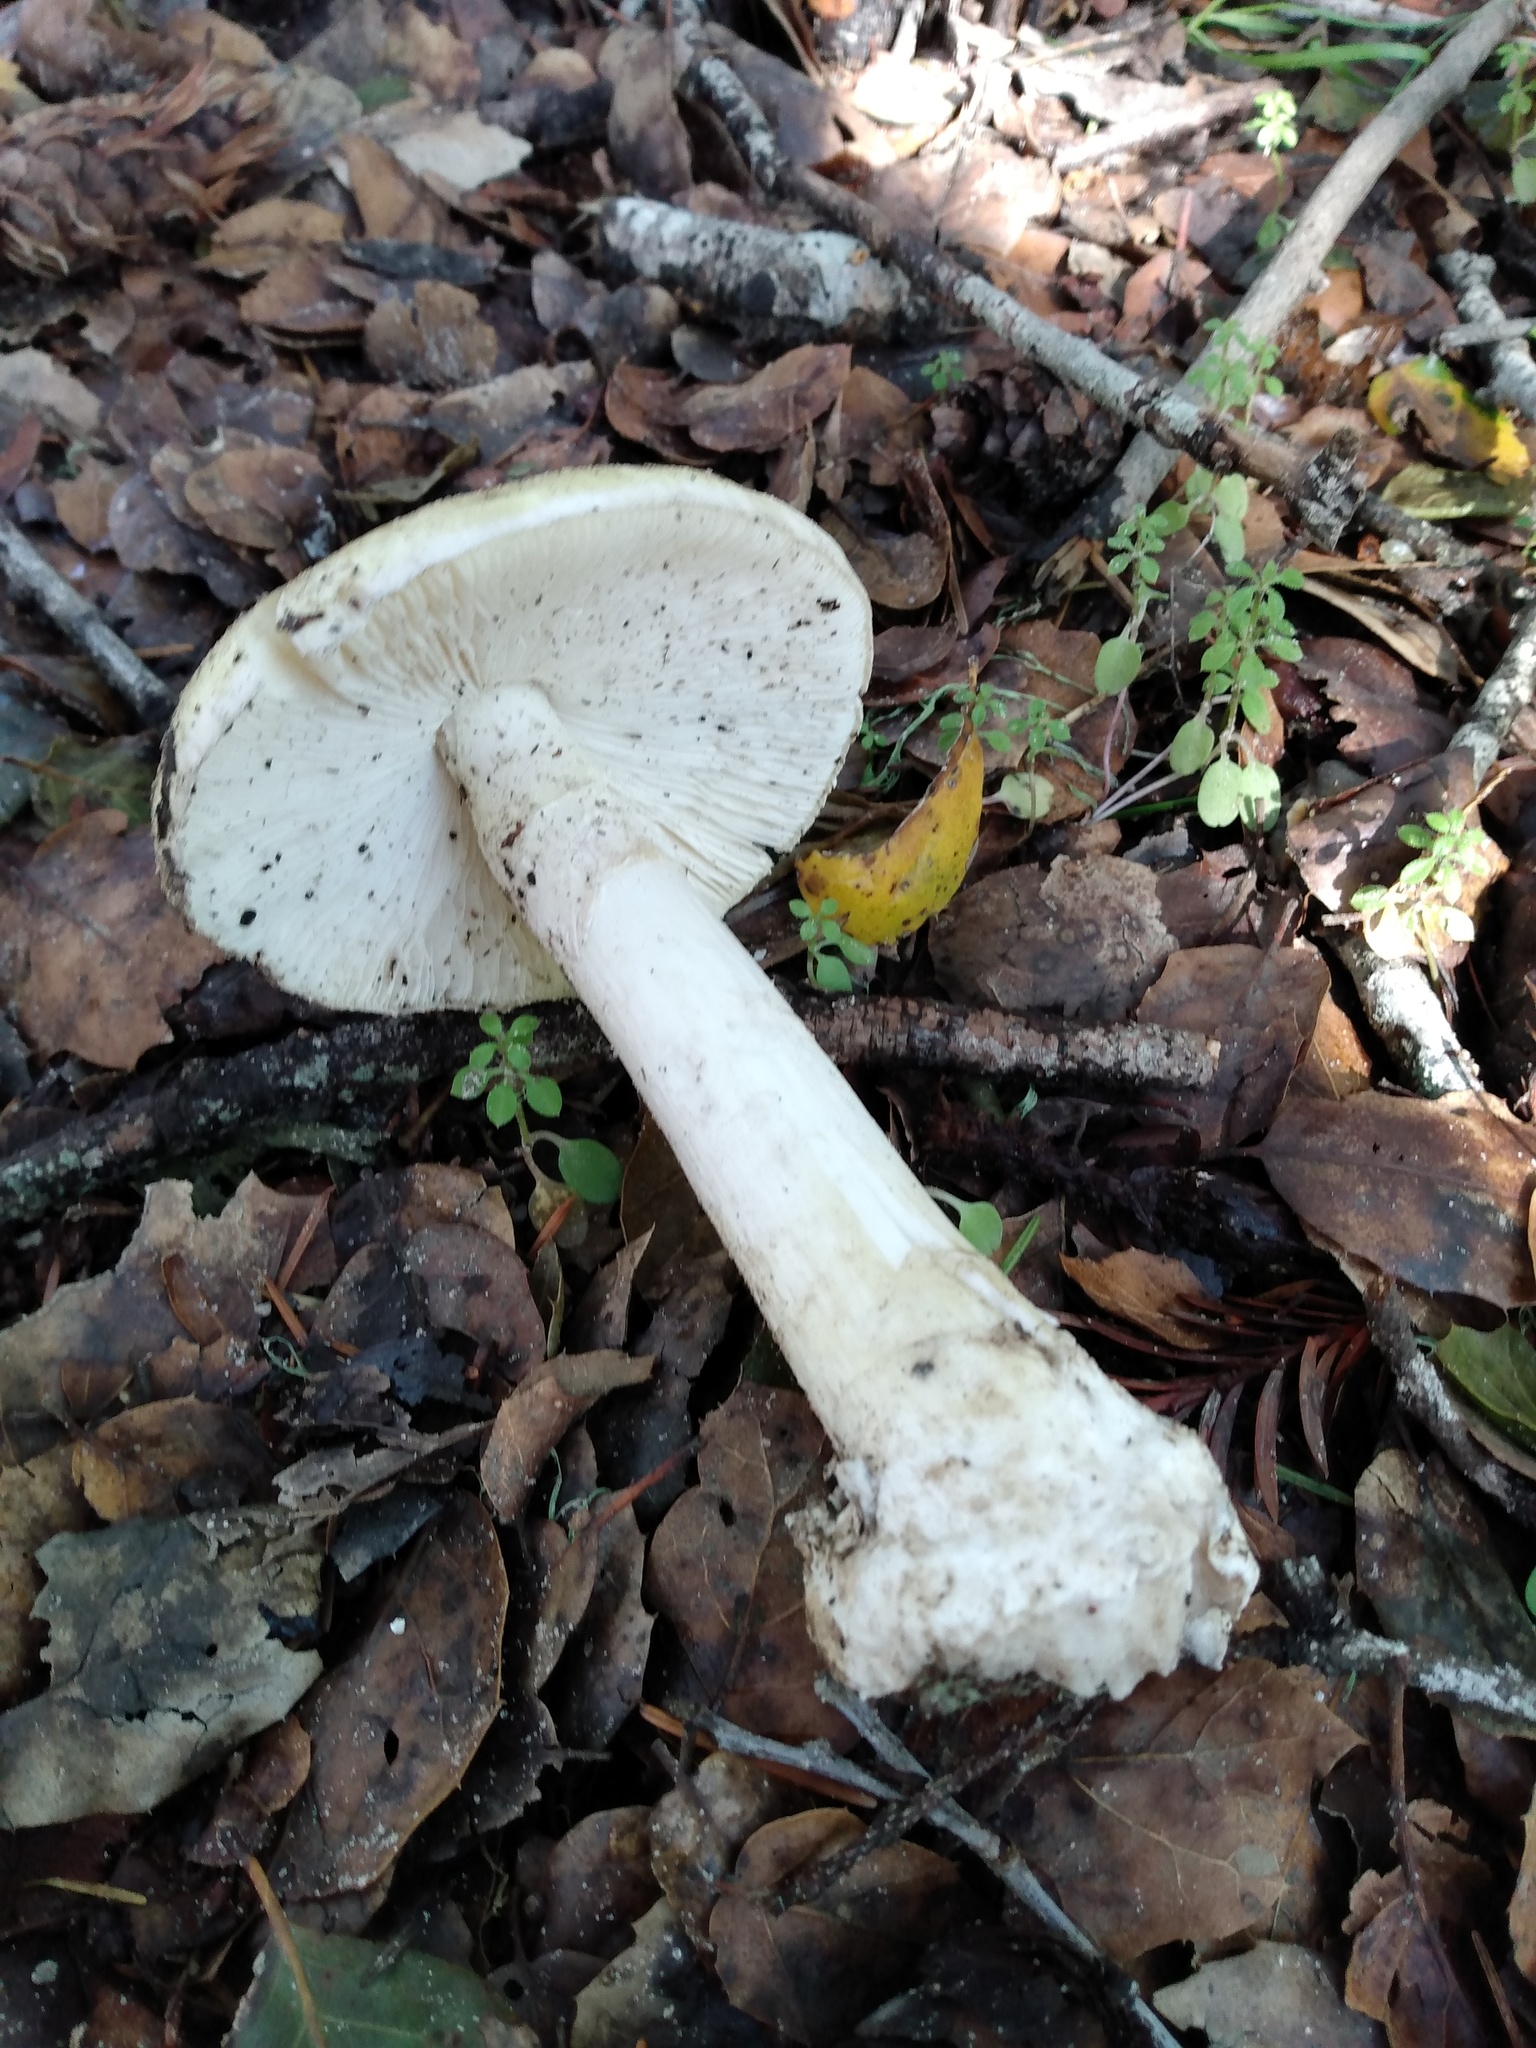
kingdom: Fungi
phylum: Basidiomycota
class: Agaricomycetes
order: Agaricales
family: Amanitaceae
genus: Amanita
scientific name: Amanita phalloides
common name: Death cap
